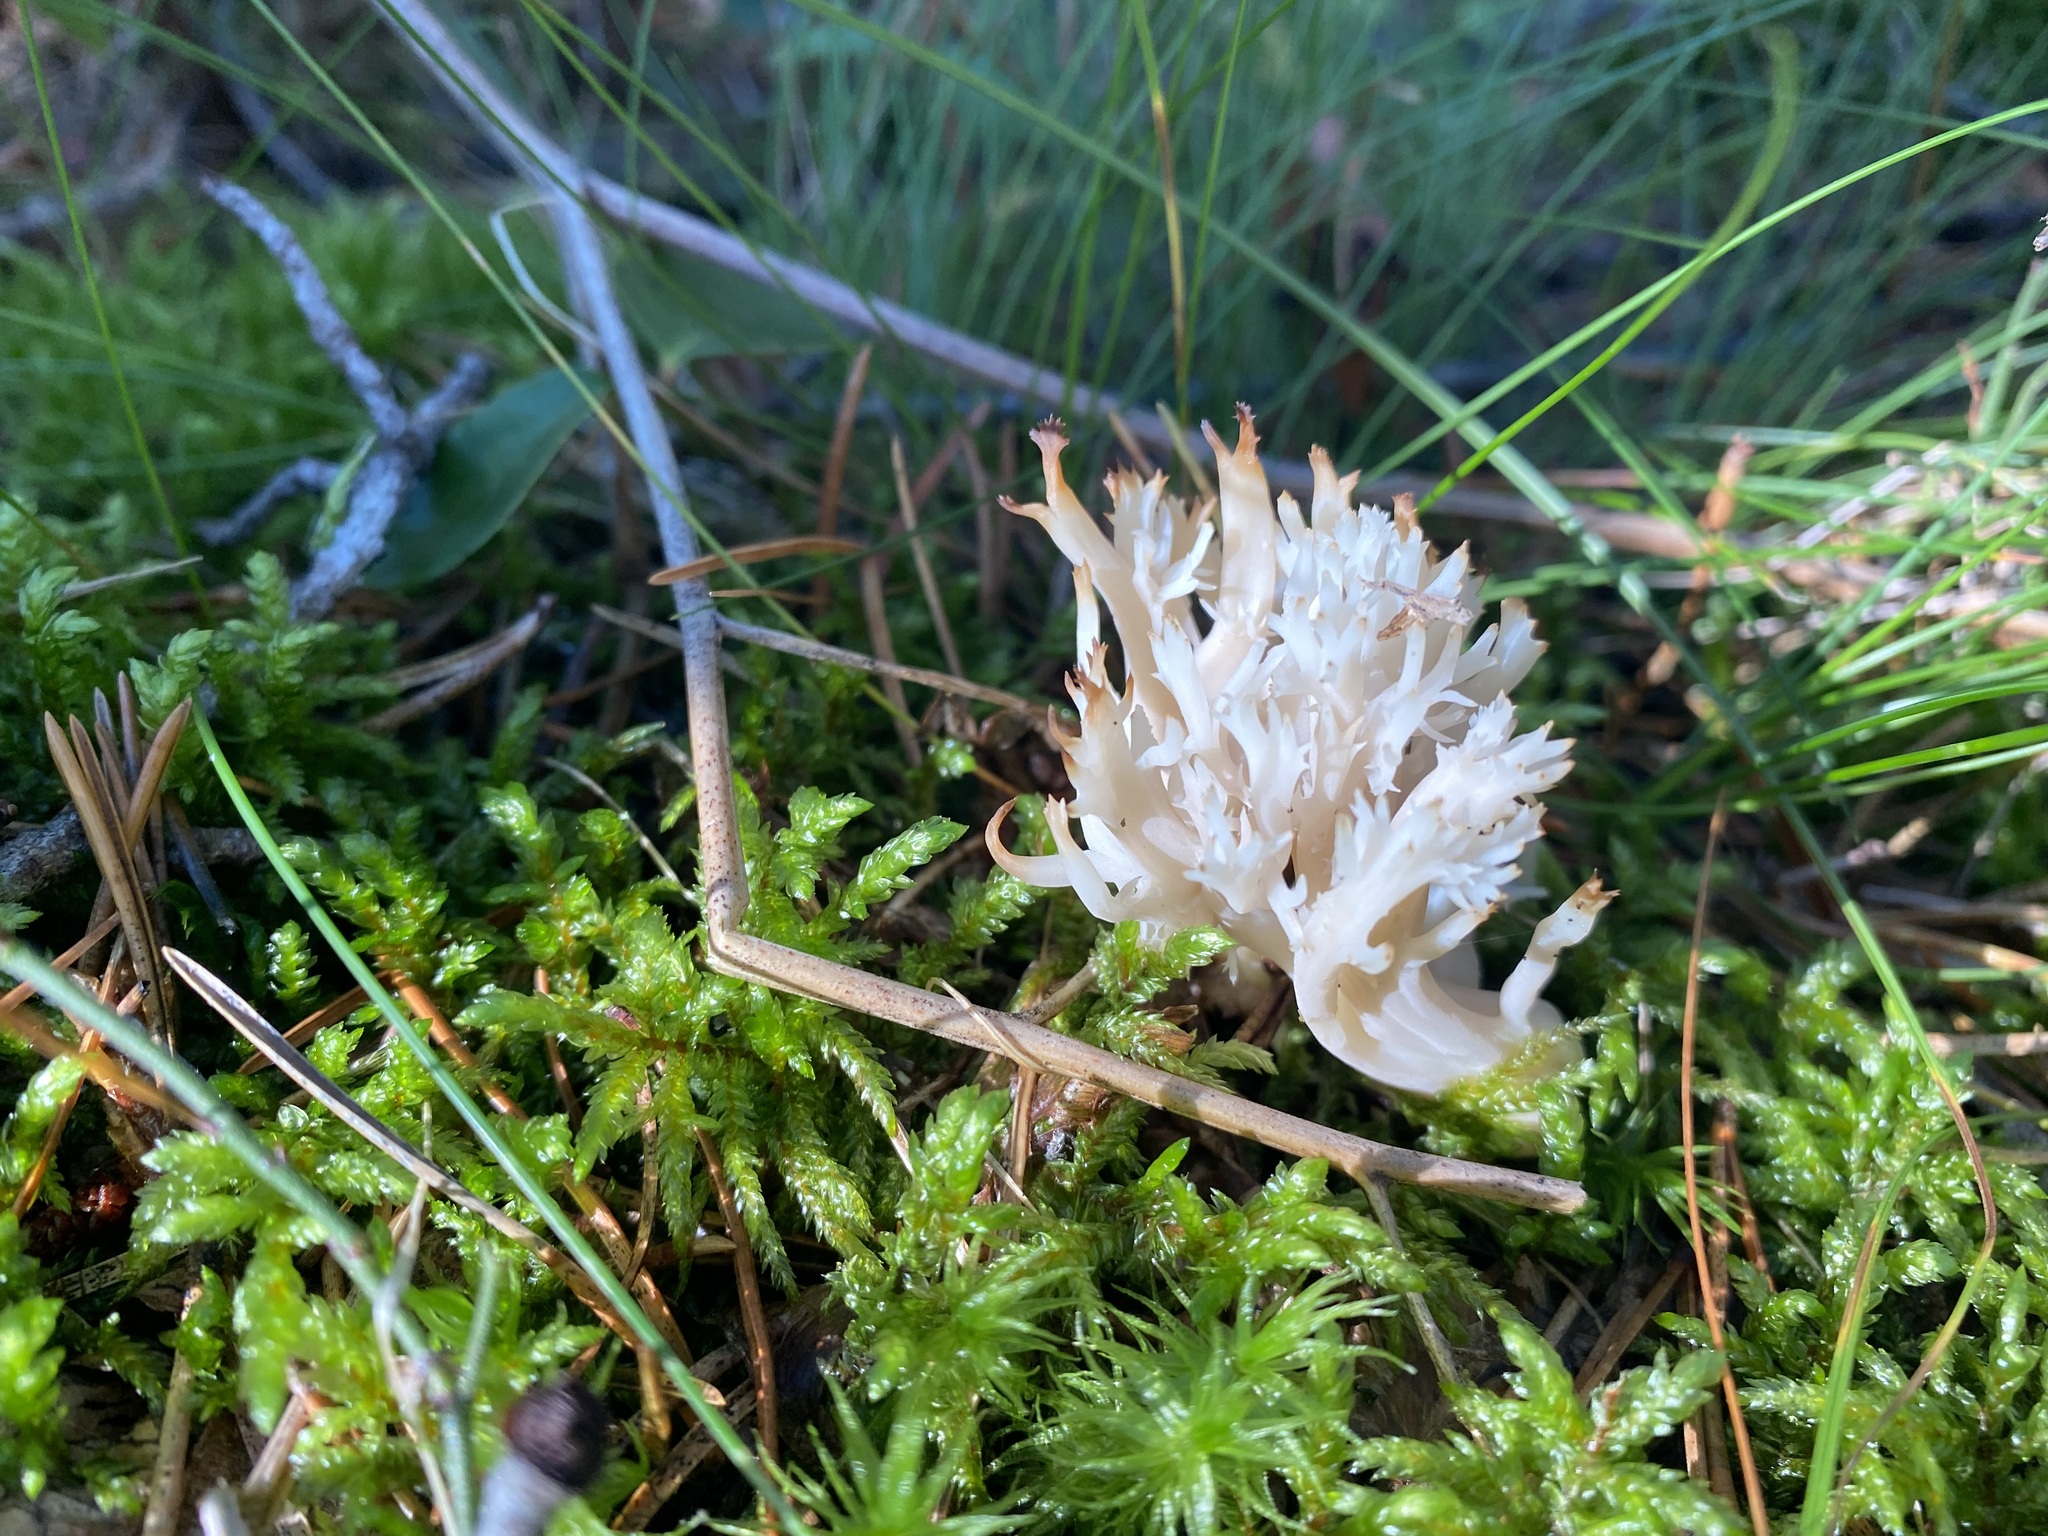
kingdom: Fungi
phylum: Basidiomycota
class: Agaricomycetes
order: Cantharellales
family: Hydnaceae
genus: Clavulina
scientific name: Clavulina coralloides
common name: Crested coral
